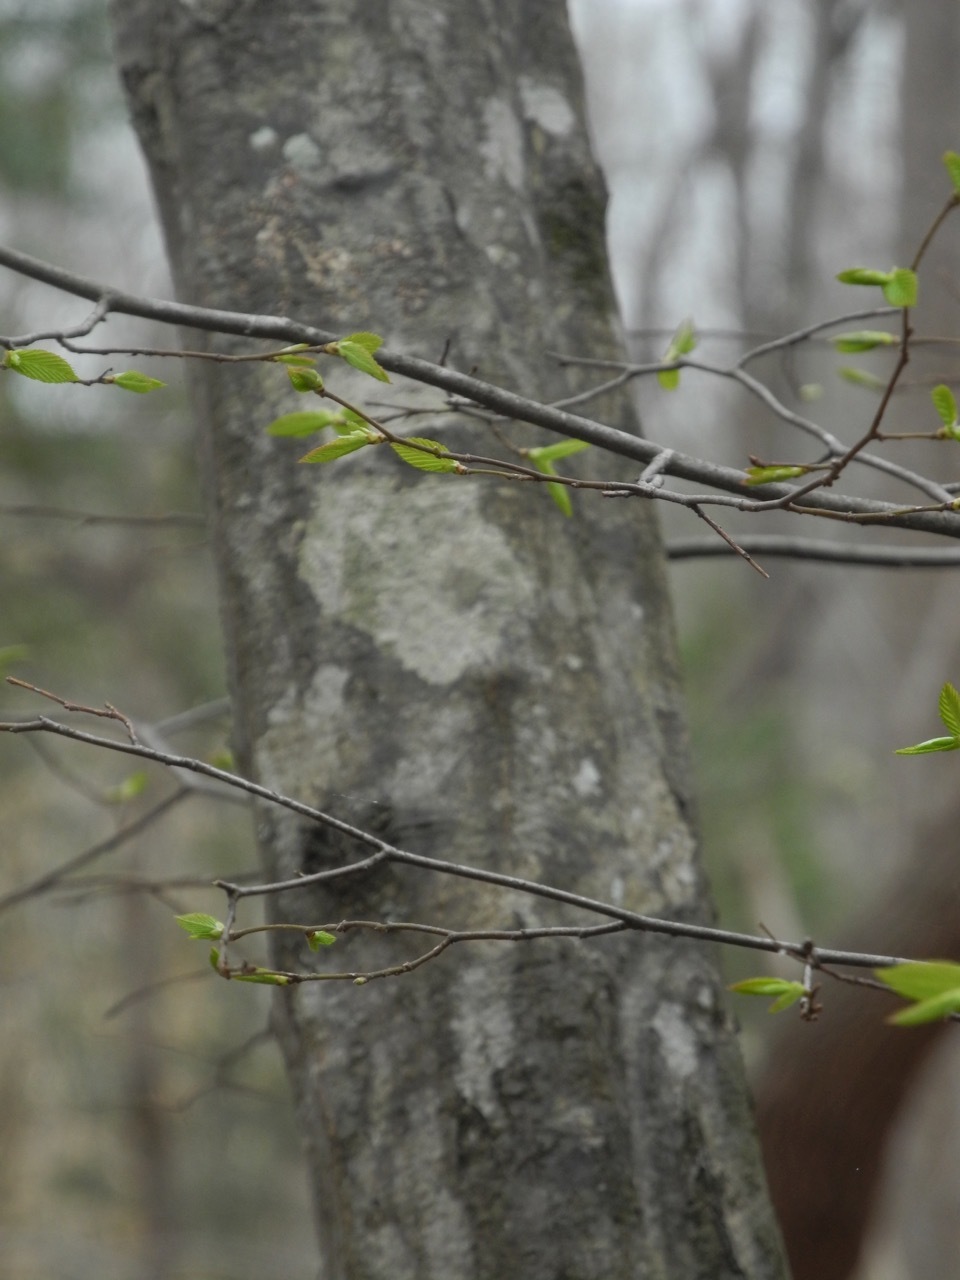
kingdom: Plantae
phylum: Tracheophyta
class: Magnoliopsida
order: Fagales
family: Betulaceae
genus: Carpinus
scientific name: Carpinus caroliniana
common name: American hornbeam
